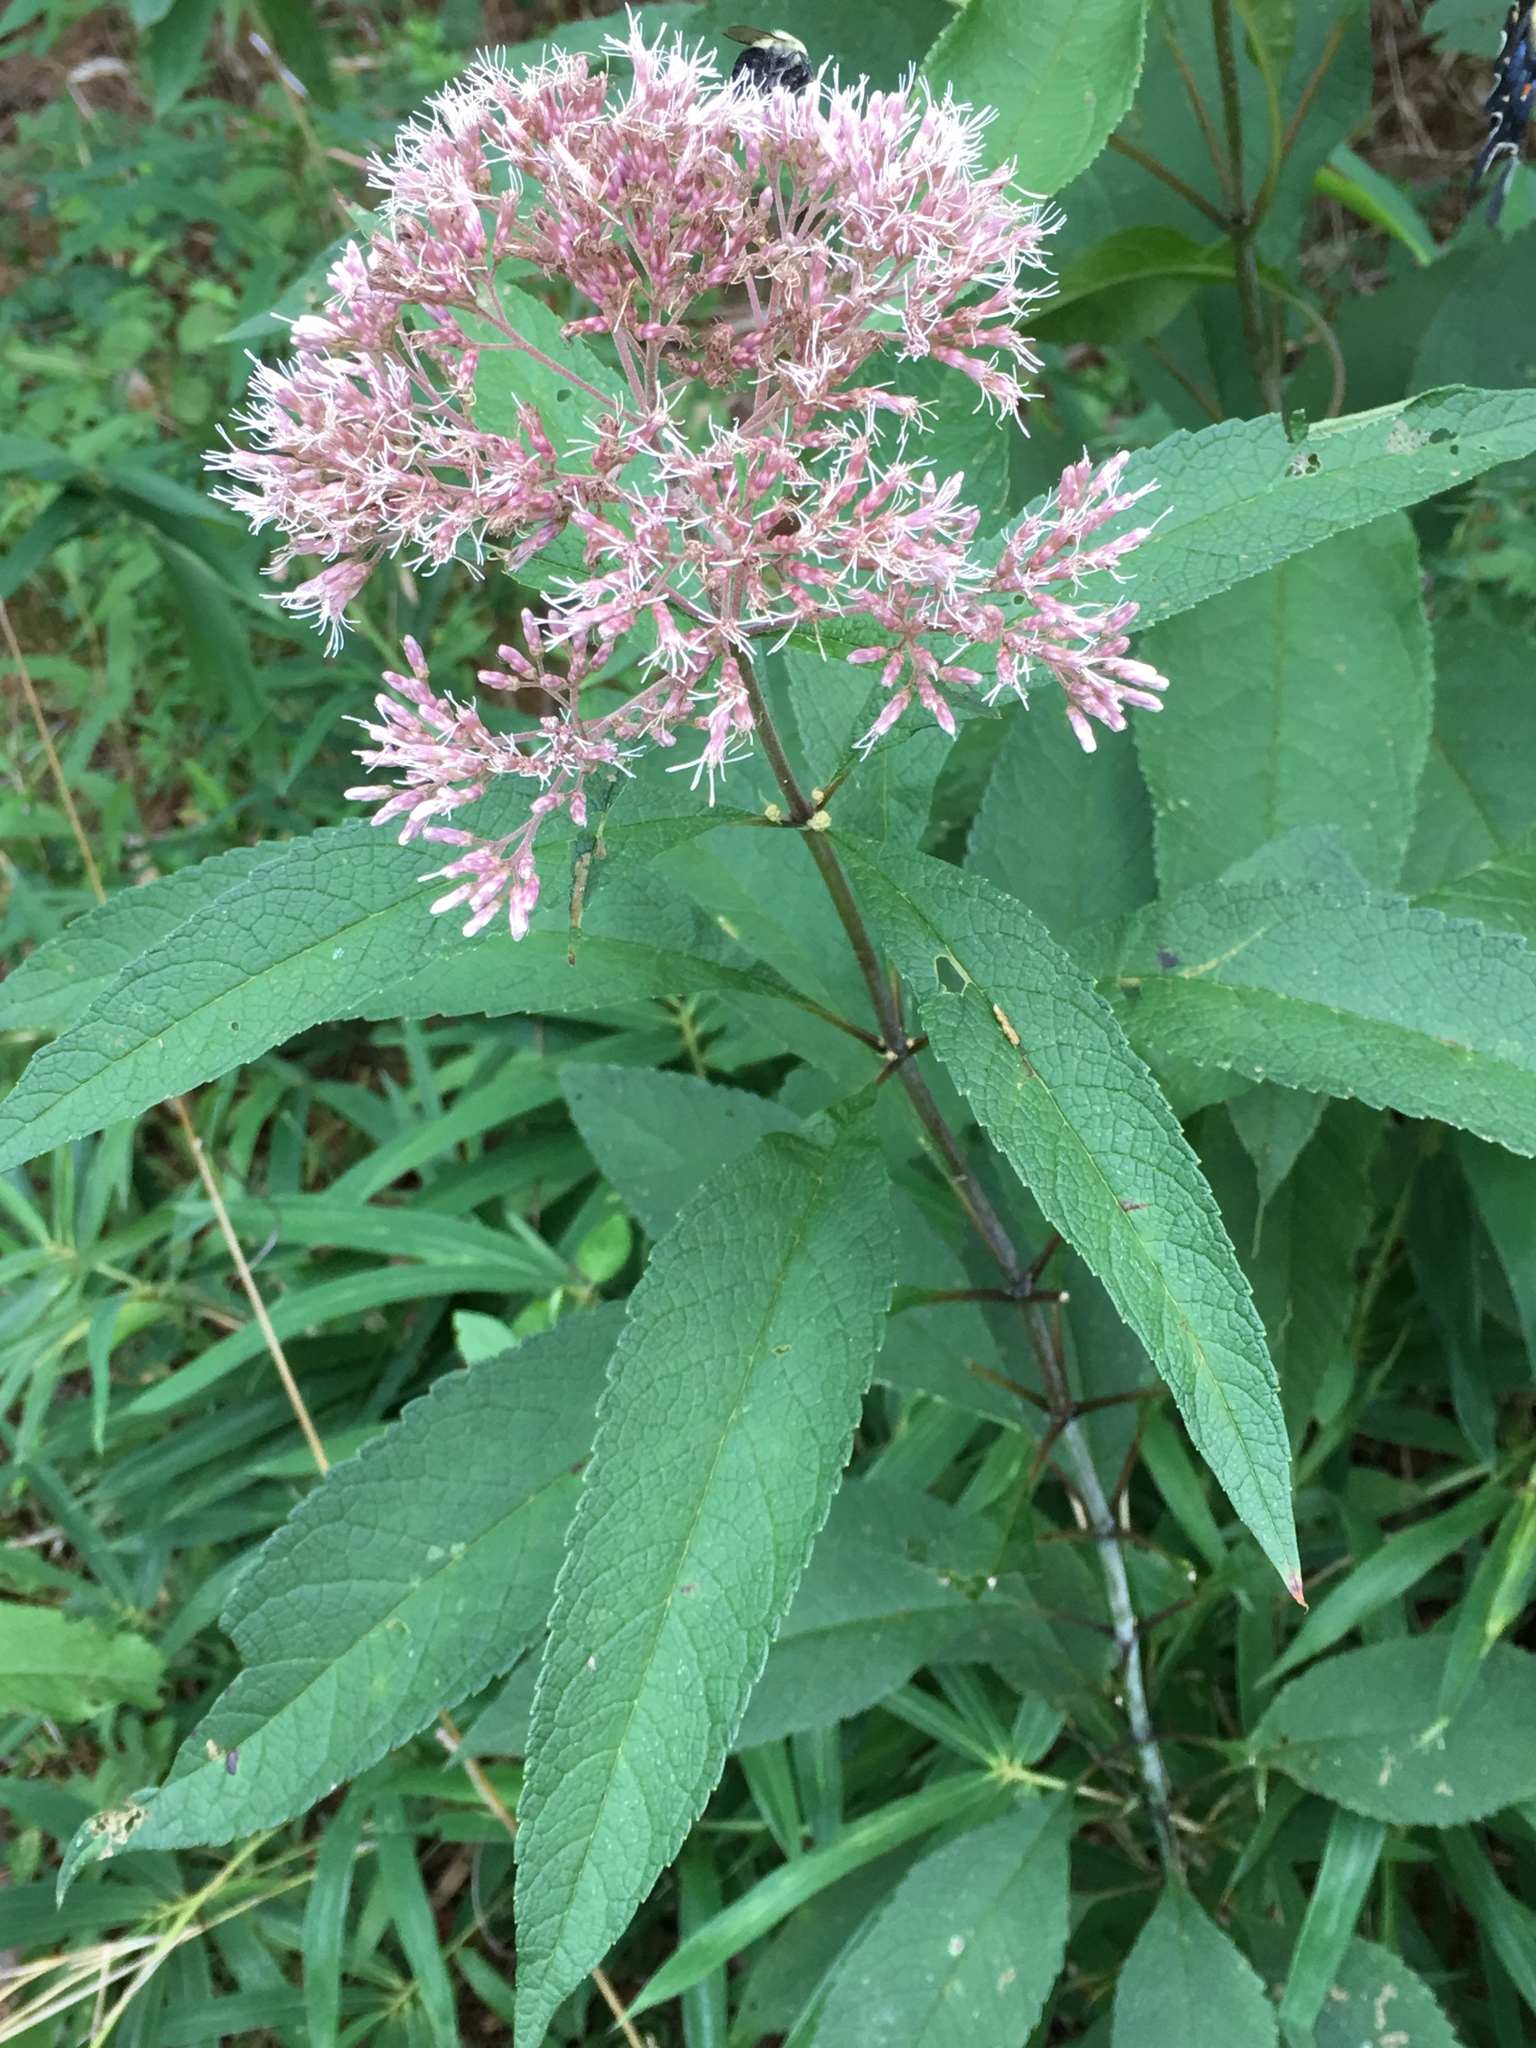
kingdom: Plantae
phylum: Tracheophyta
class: Magnoliopsida
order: Asterales
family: Asteraceae
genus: Eutrochium
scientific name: Eutrochium fistulosum
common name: Trumpetweed
